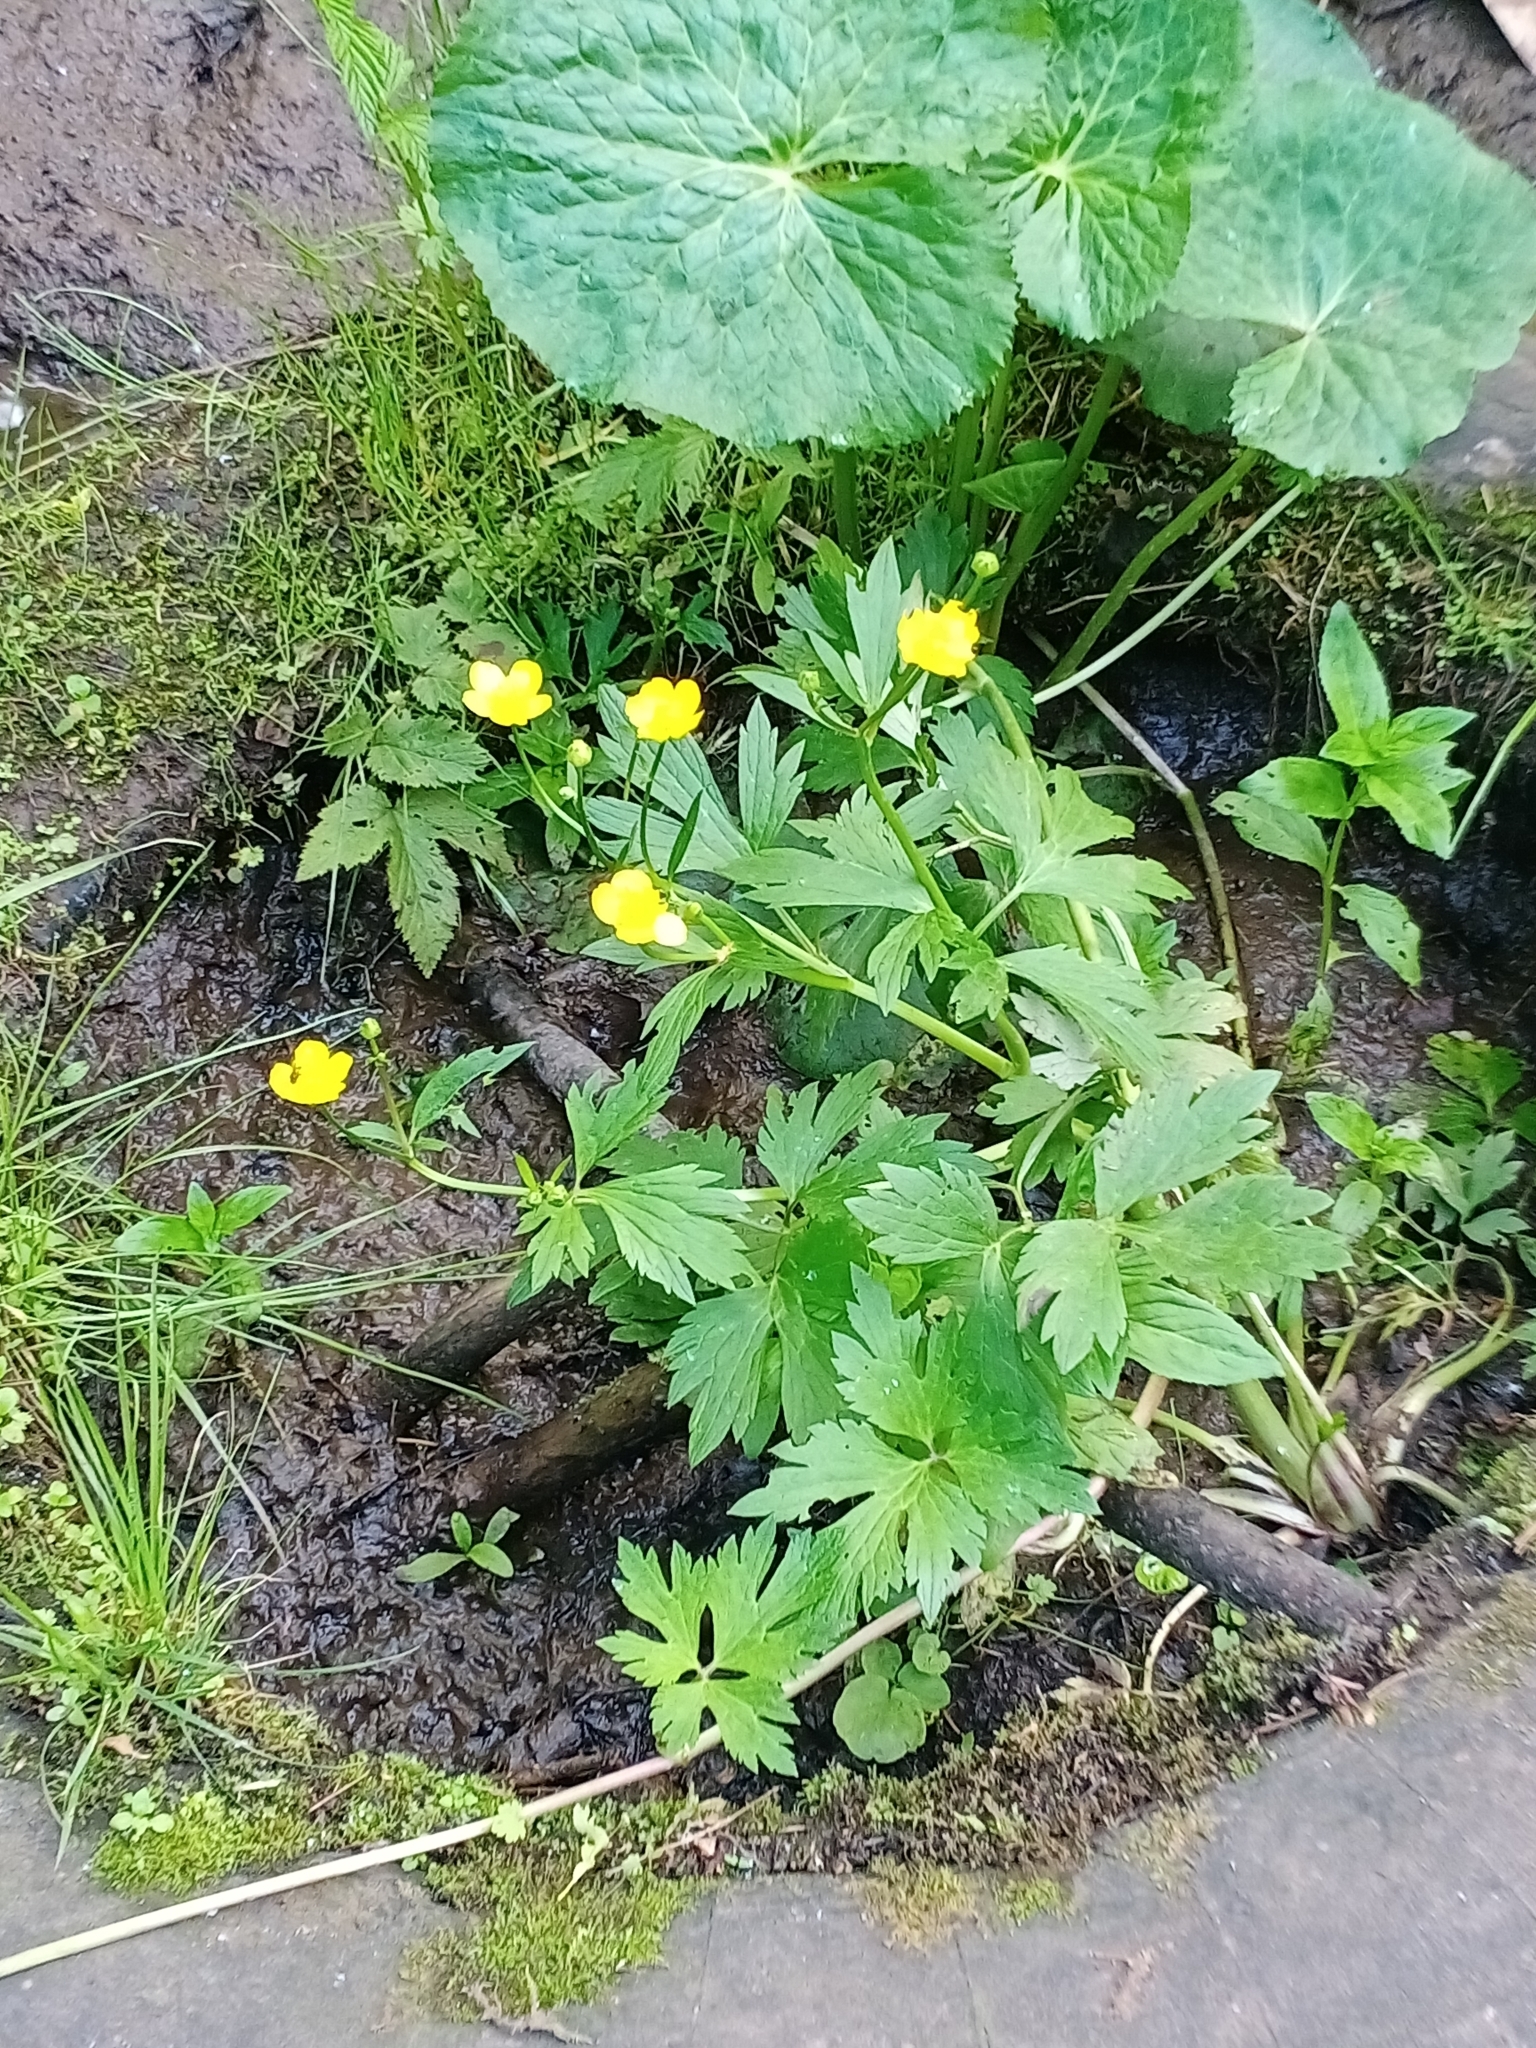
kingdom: Plantae
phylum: Tracheophyta
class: Magnoliopsida
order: Ranunculales
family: Ranunculaceae
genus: Ranunculus
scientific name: Ranunculus repens
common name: Creeping buttercup
